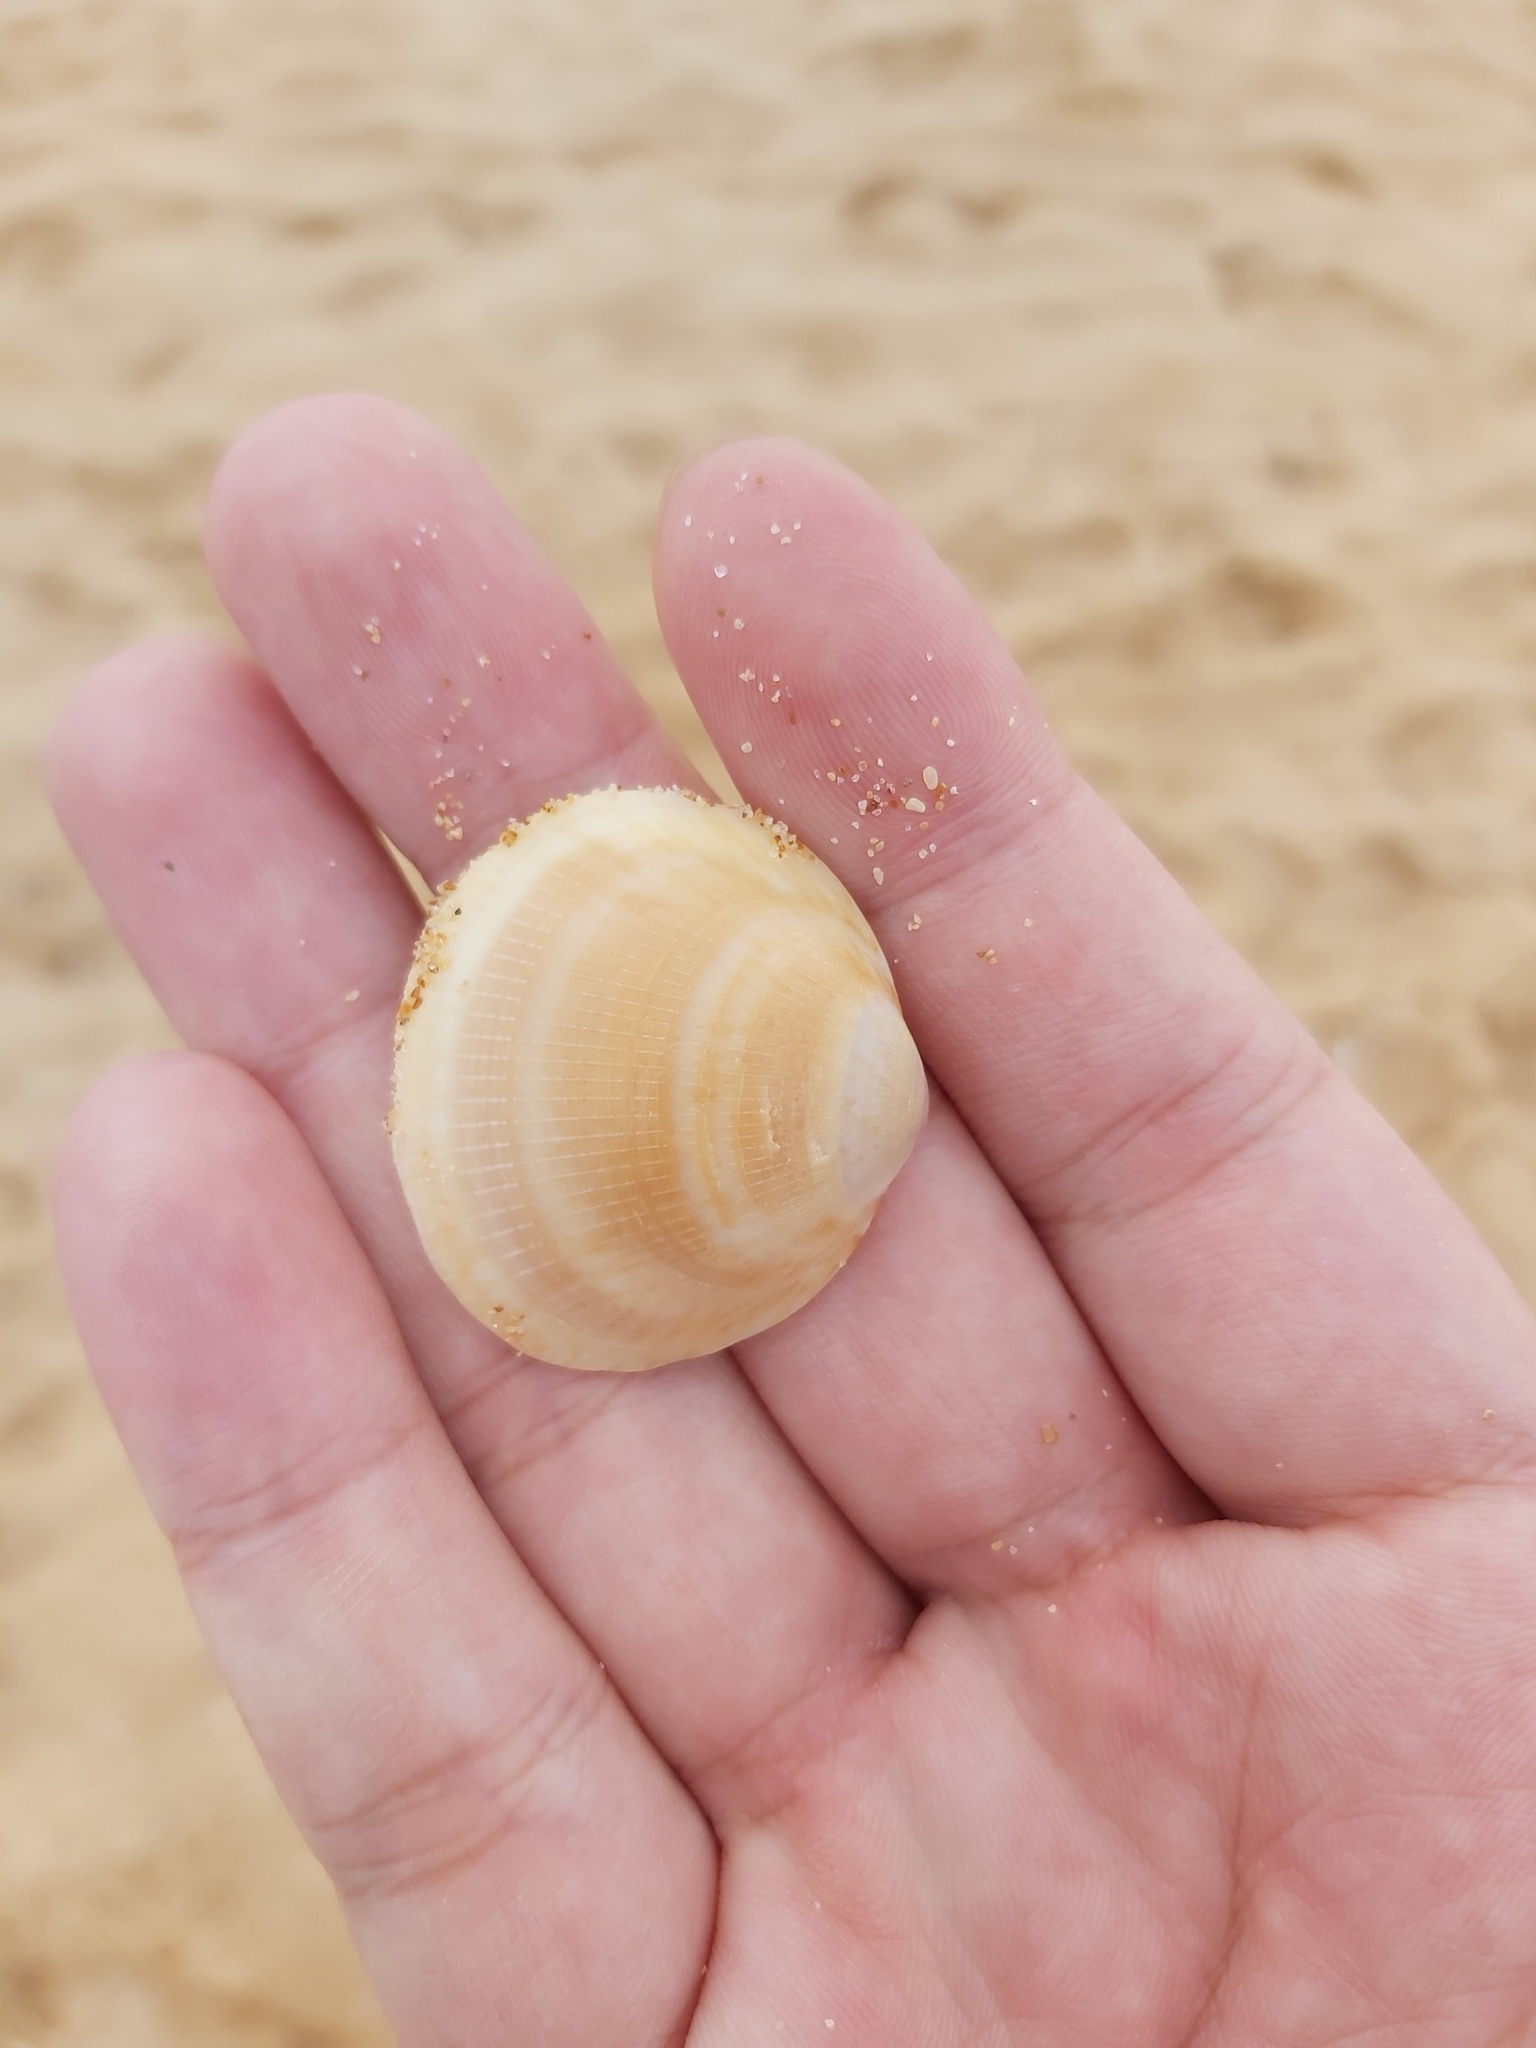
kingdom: Animalia
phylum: Mollusca
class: Bivalvia
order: Arcida
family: Glycymerididae
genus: Glycymeris
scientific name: Glycymeris grayana
